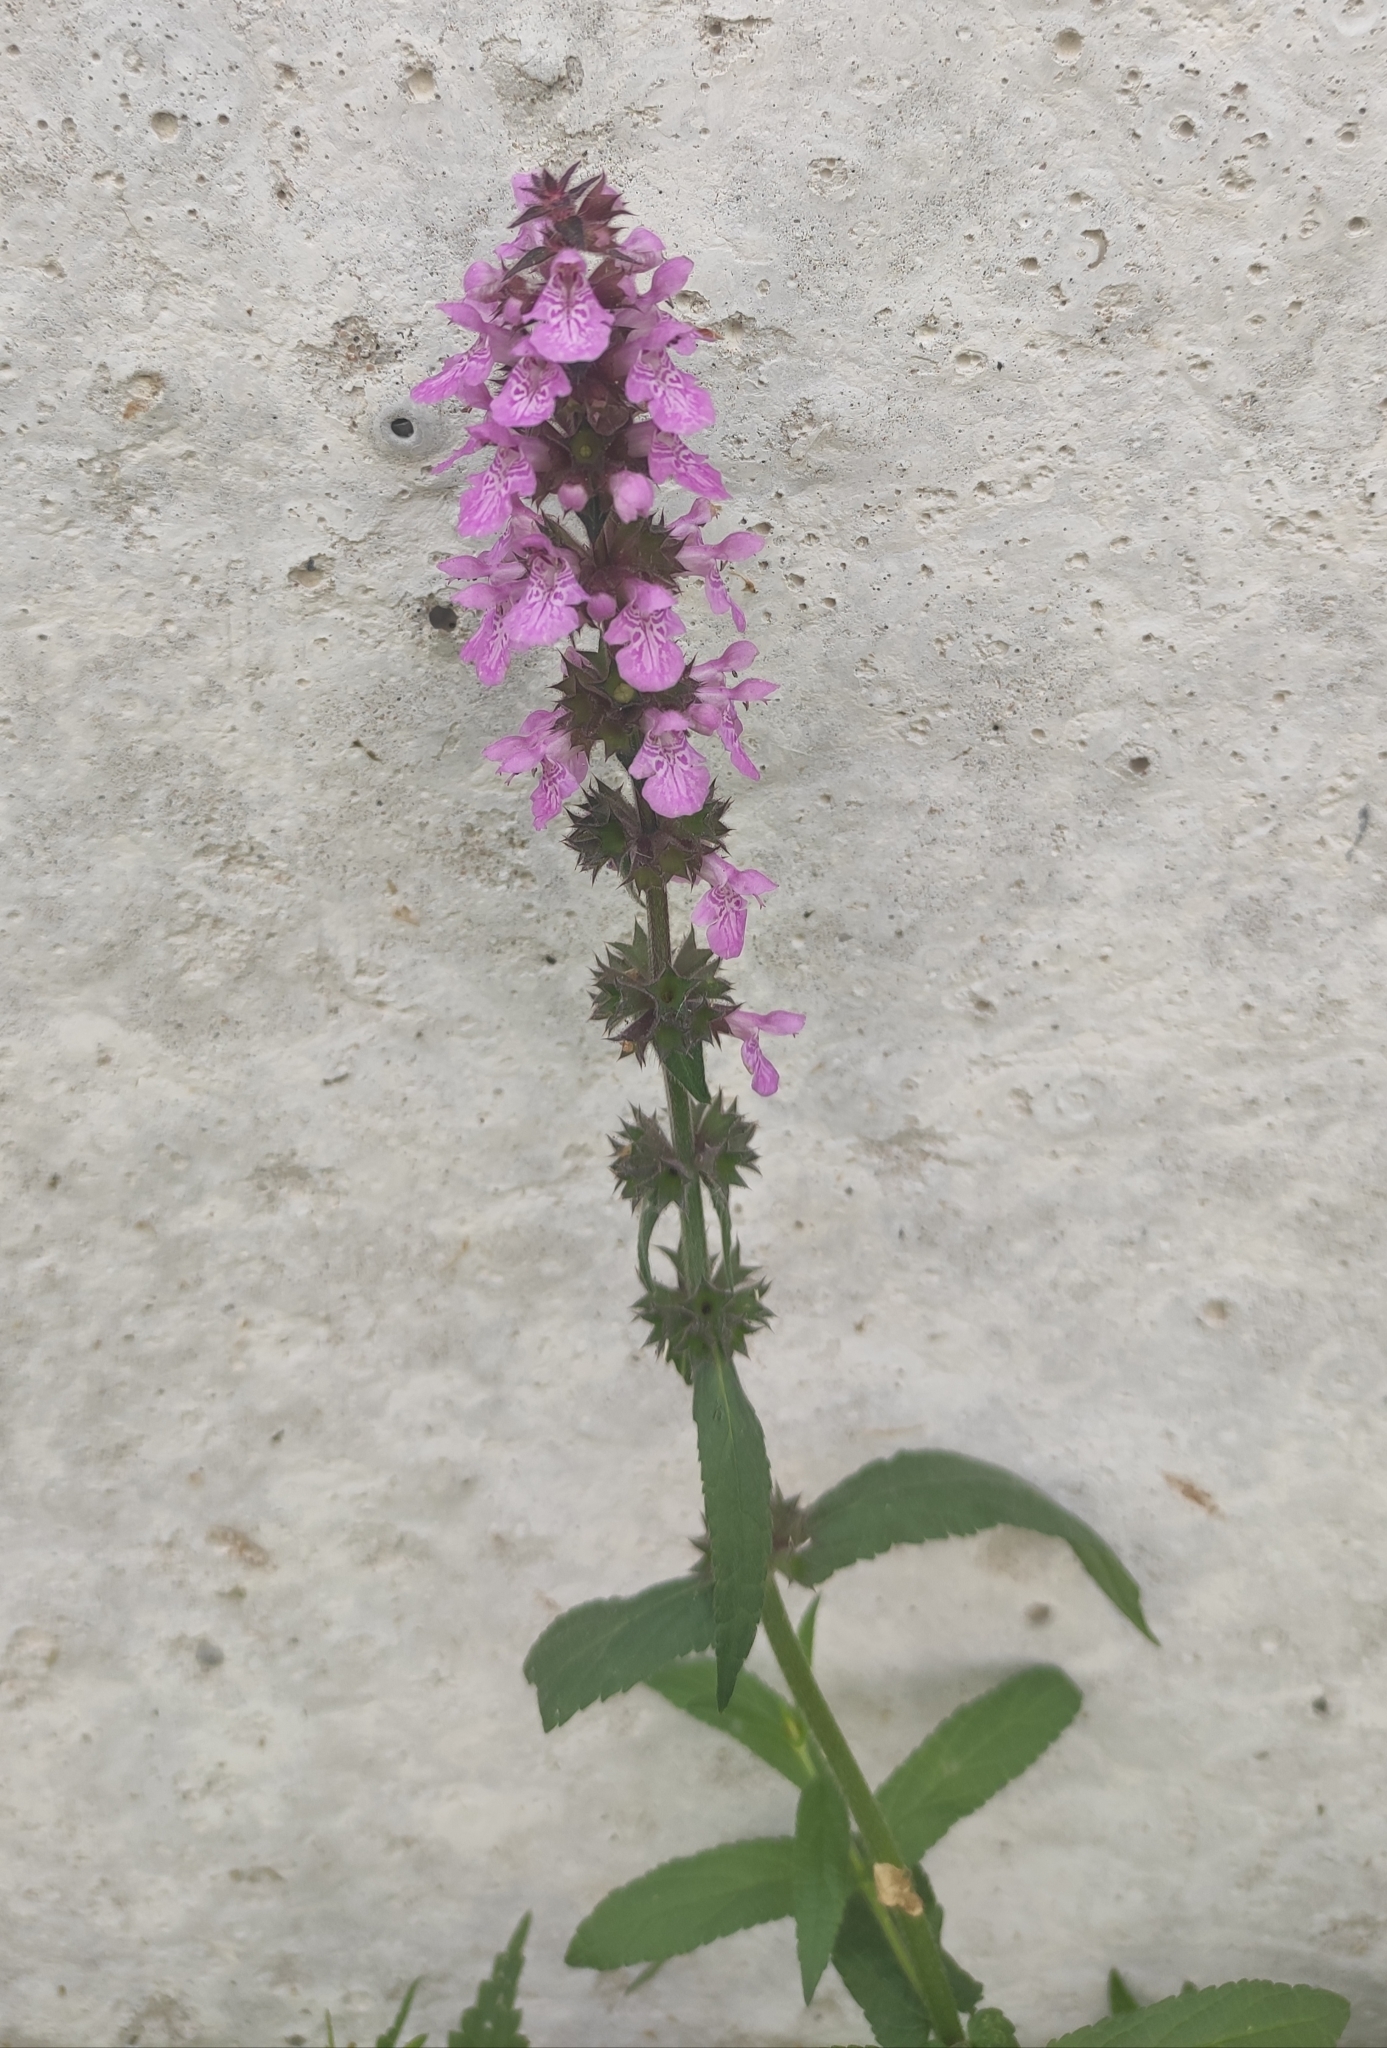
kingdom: Plantae
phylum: Tracheophyta
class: Magnoliopsida
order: Lamiales
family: Lamiaceae
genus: Stachys
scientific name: Stachys palustris
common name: Marsh woundwort
